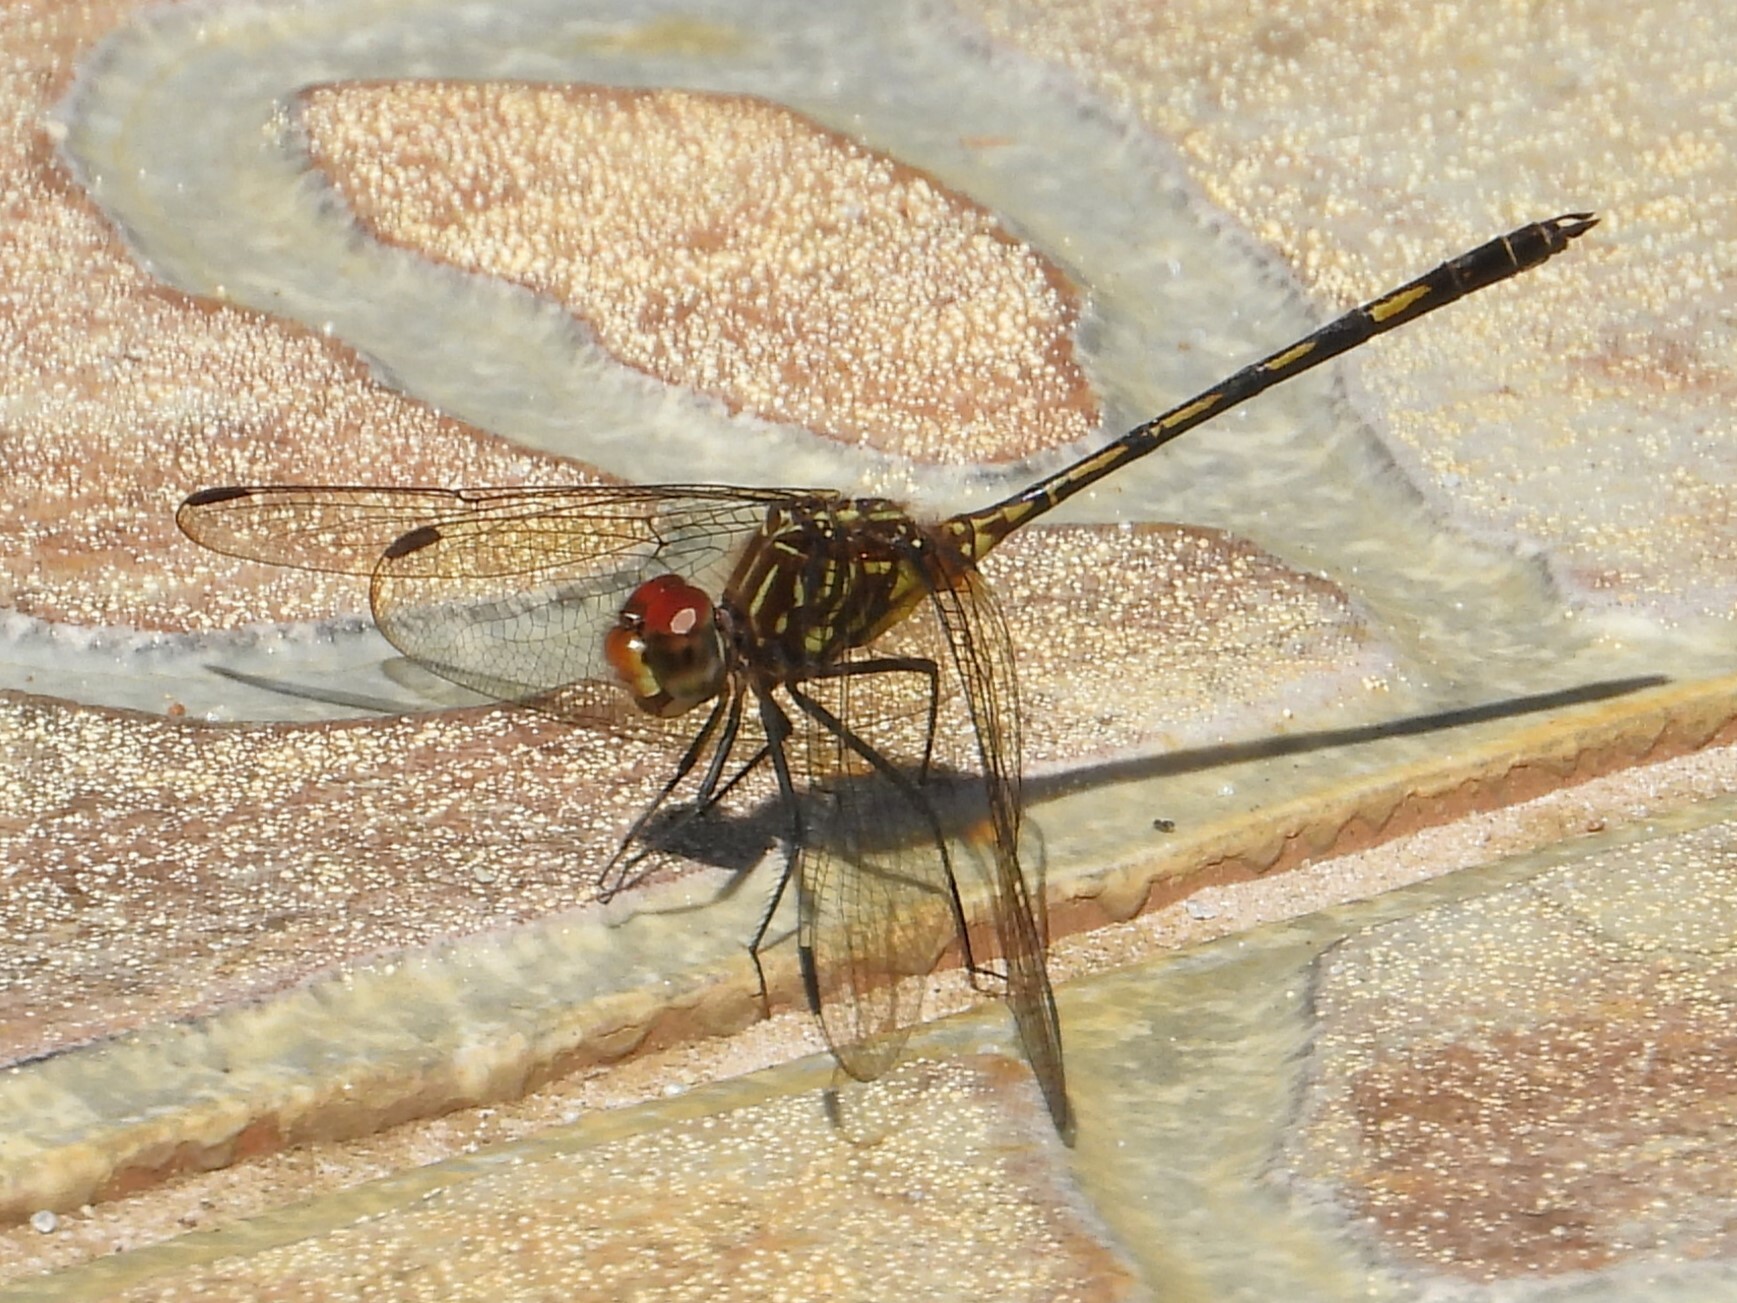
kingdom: Animalia
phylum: Arthropoda
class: Insecta
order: Odonata
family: Libellulidae
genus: Dythemis
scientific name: Dythemis sterilis
